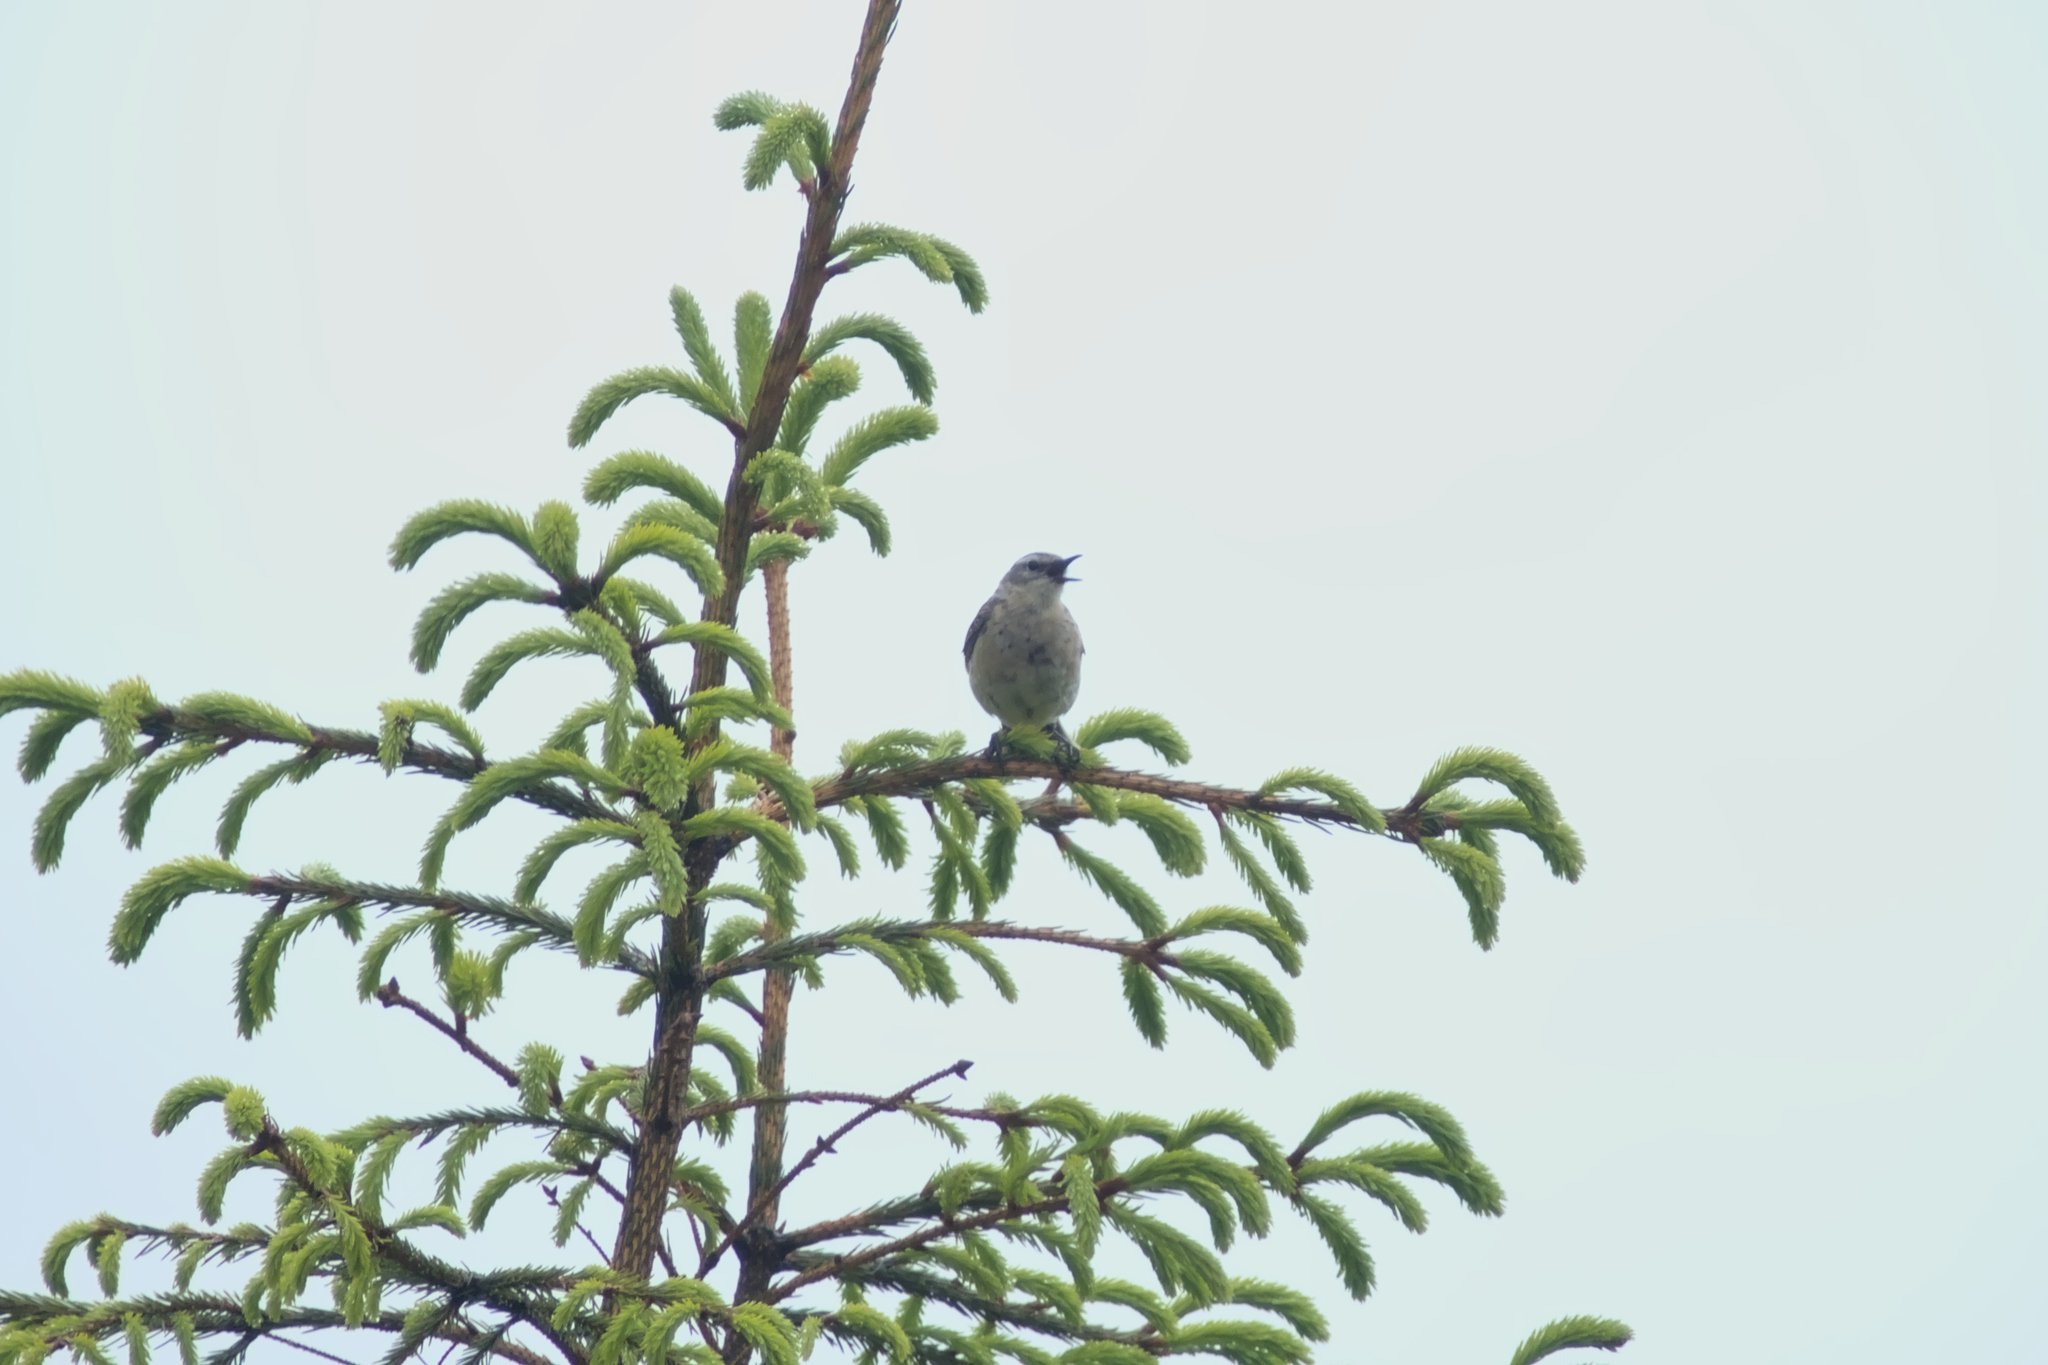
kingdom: Animalia
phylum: Chordata
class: Aves
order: Passeriformes
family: Motacillidae
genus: Anthus
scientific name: Anthus spinoletta
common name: Water pipit
